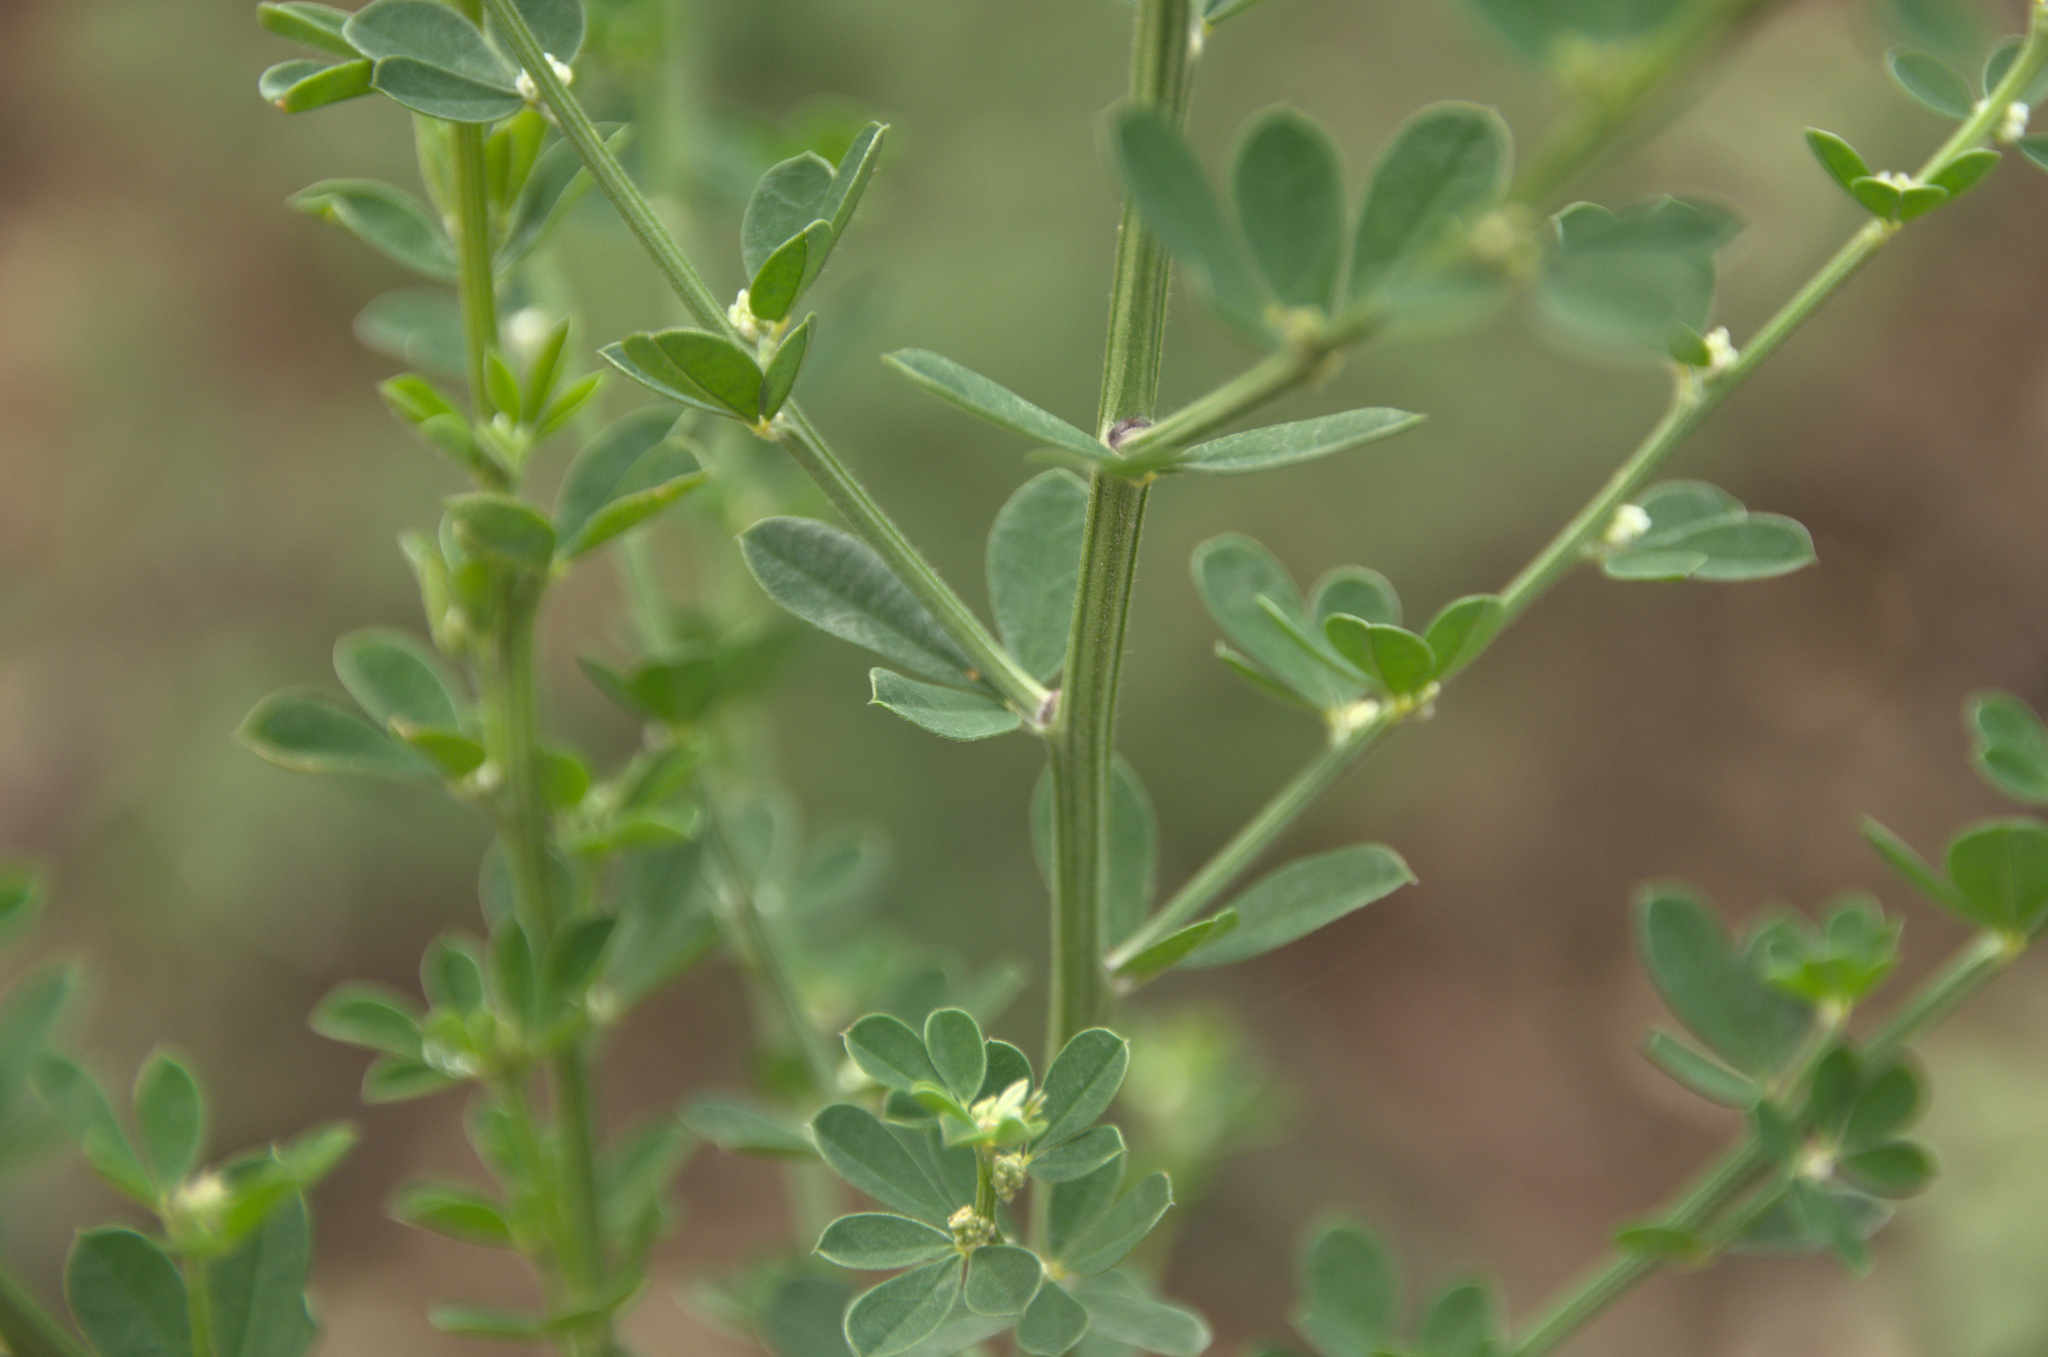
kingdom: Plantae
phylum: Tracheophyta
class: Magnoliopsida
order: Fabales
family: Fabaceae
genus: Genista
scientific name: Genista monspessulana
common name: Montpellier broom
